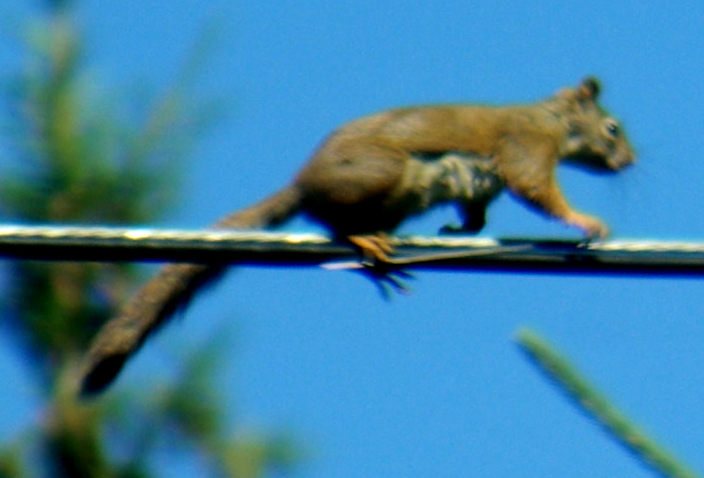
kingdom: Animalia
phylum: Chordata
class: Mammalia
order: Rodentia
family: Sciuridae
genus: Tamiasciurus
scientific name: Tamiasciurus hudsonicus
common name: Red squirrel
